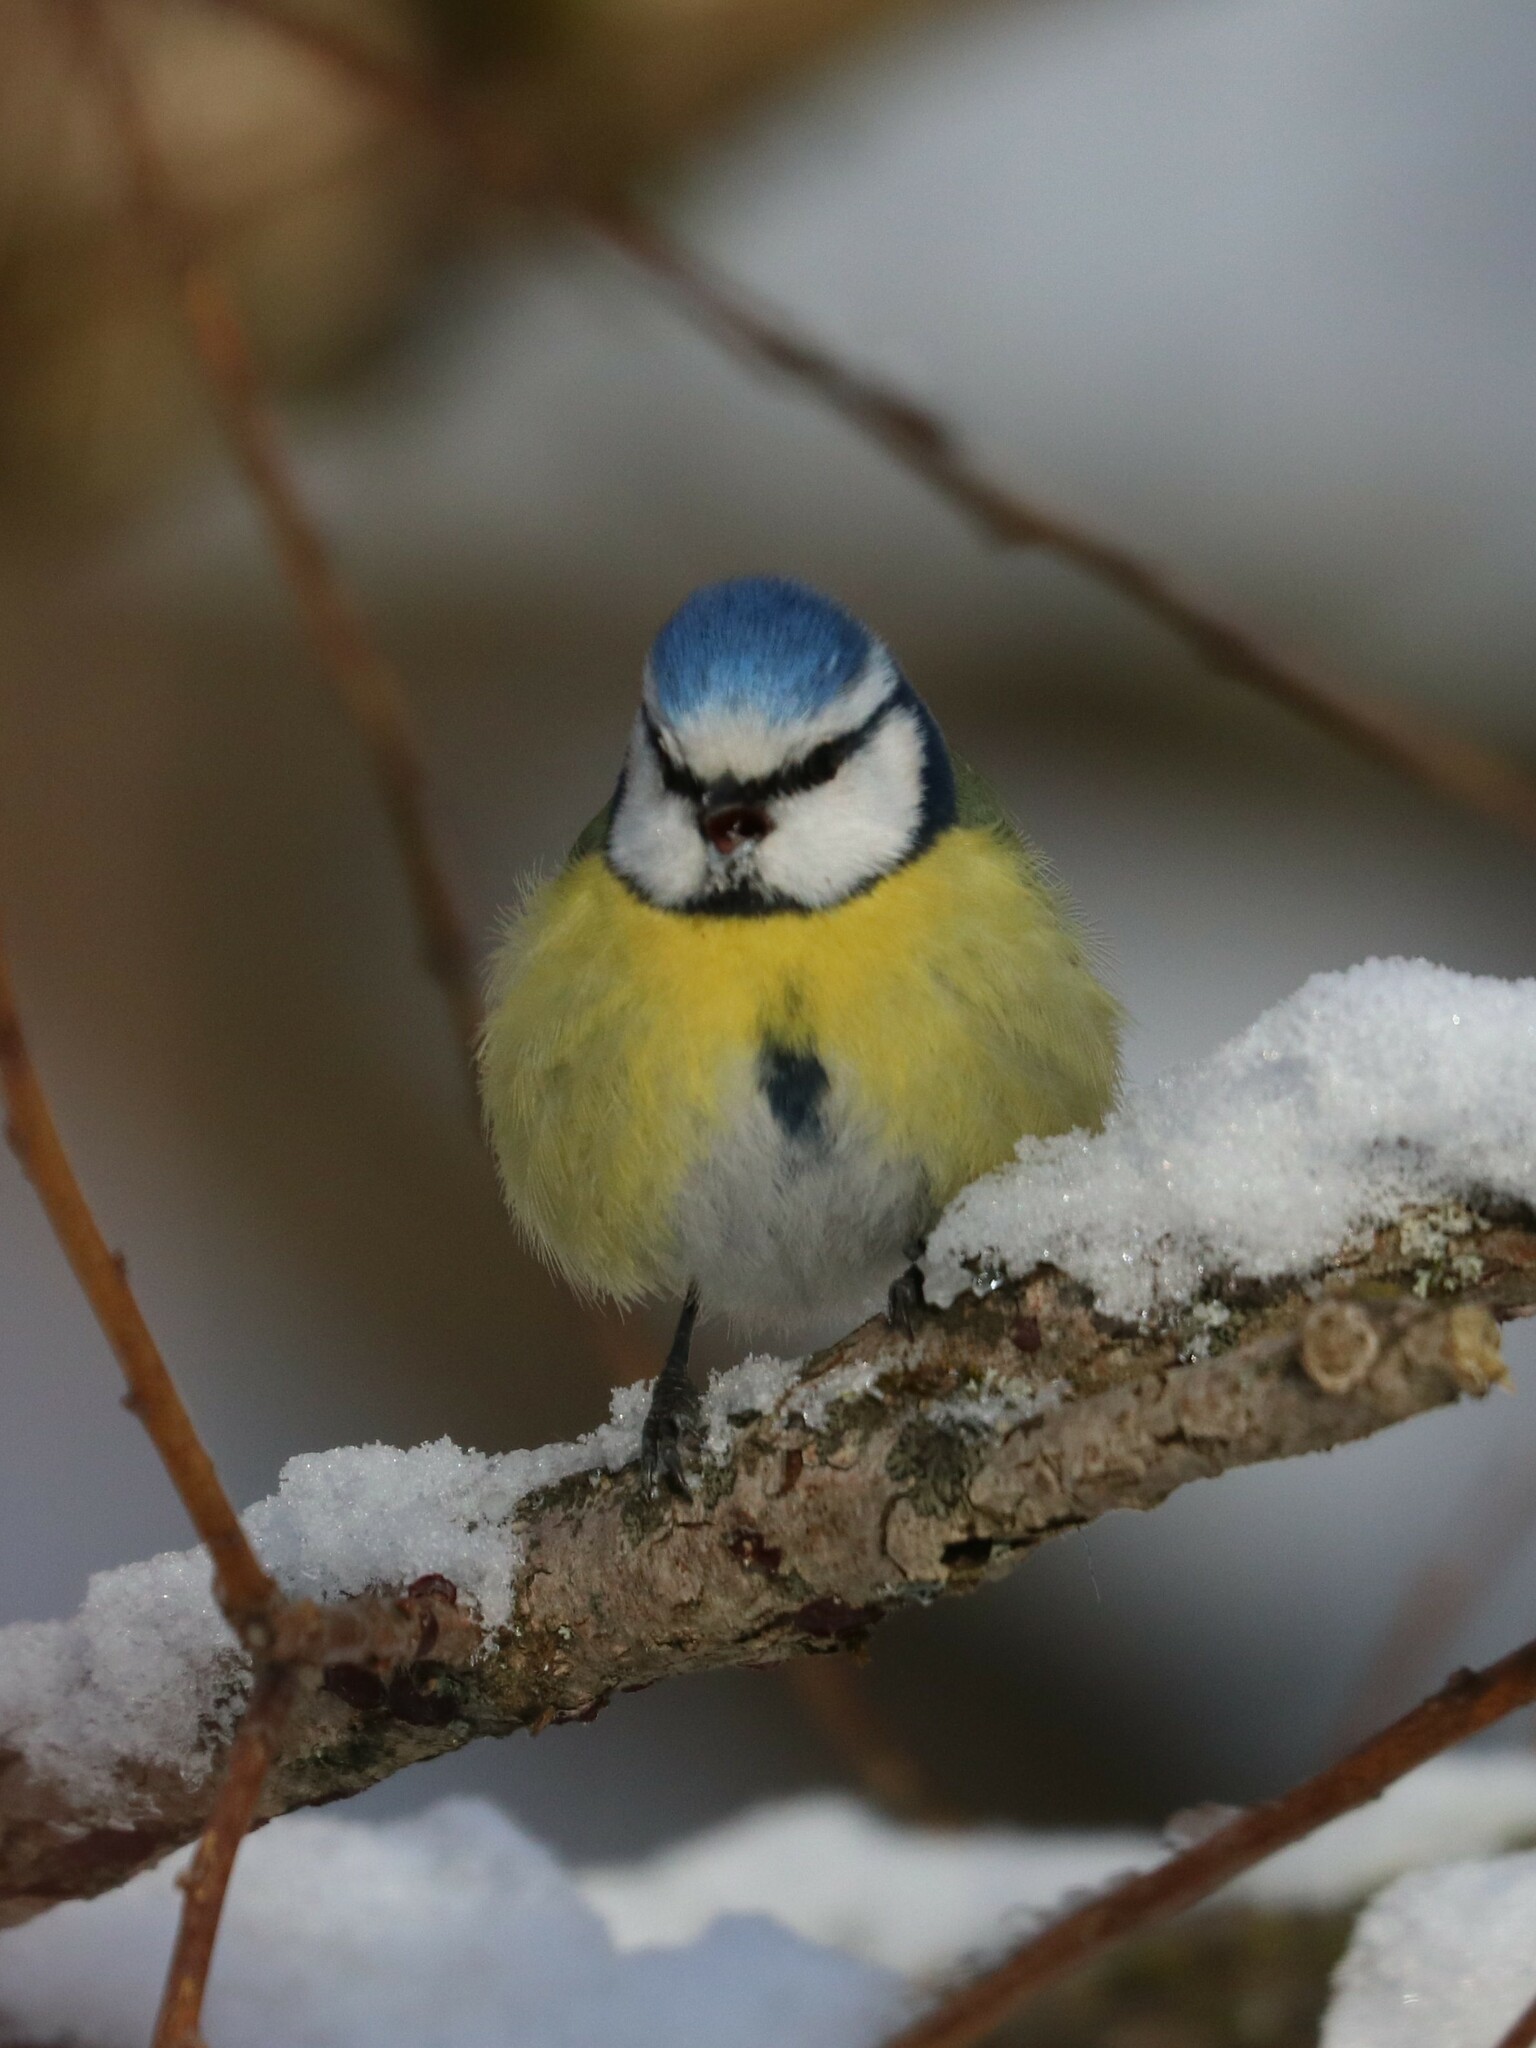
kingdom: Animalia
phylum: Chordata
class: Aves
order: Passeriformes
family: Paridae
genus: Cyanistes
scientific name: Cyanistes caeruleus
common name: Eurasian blue tit
